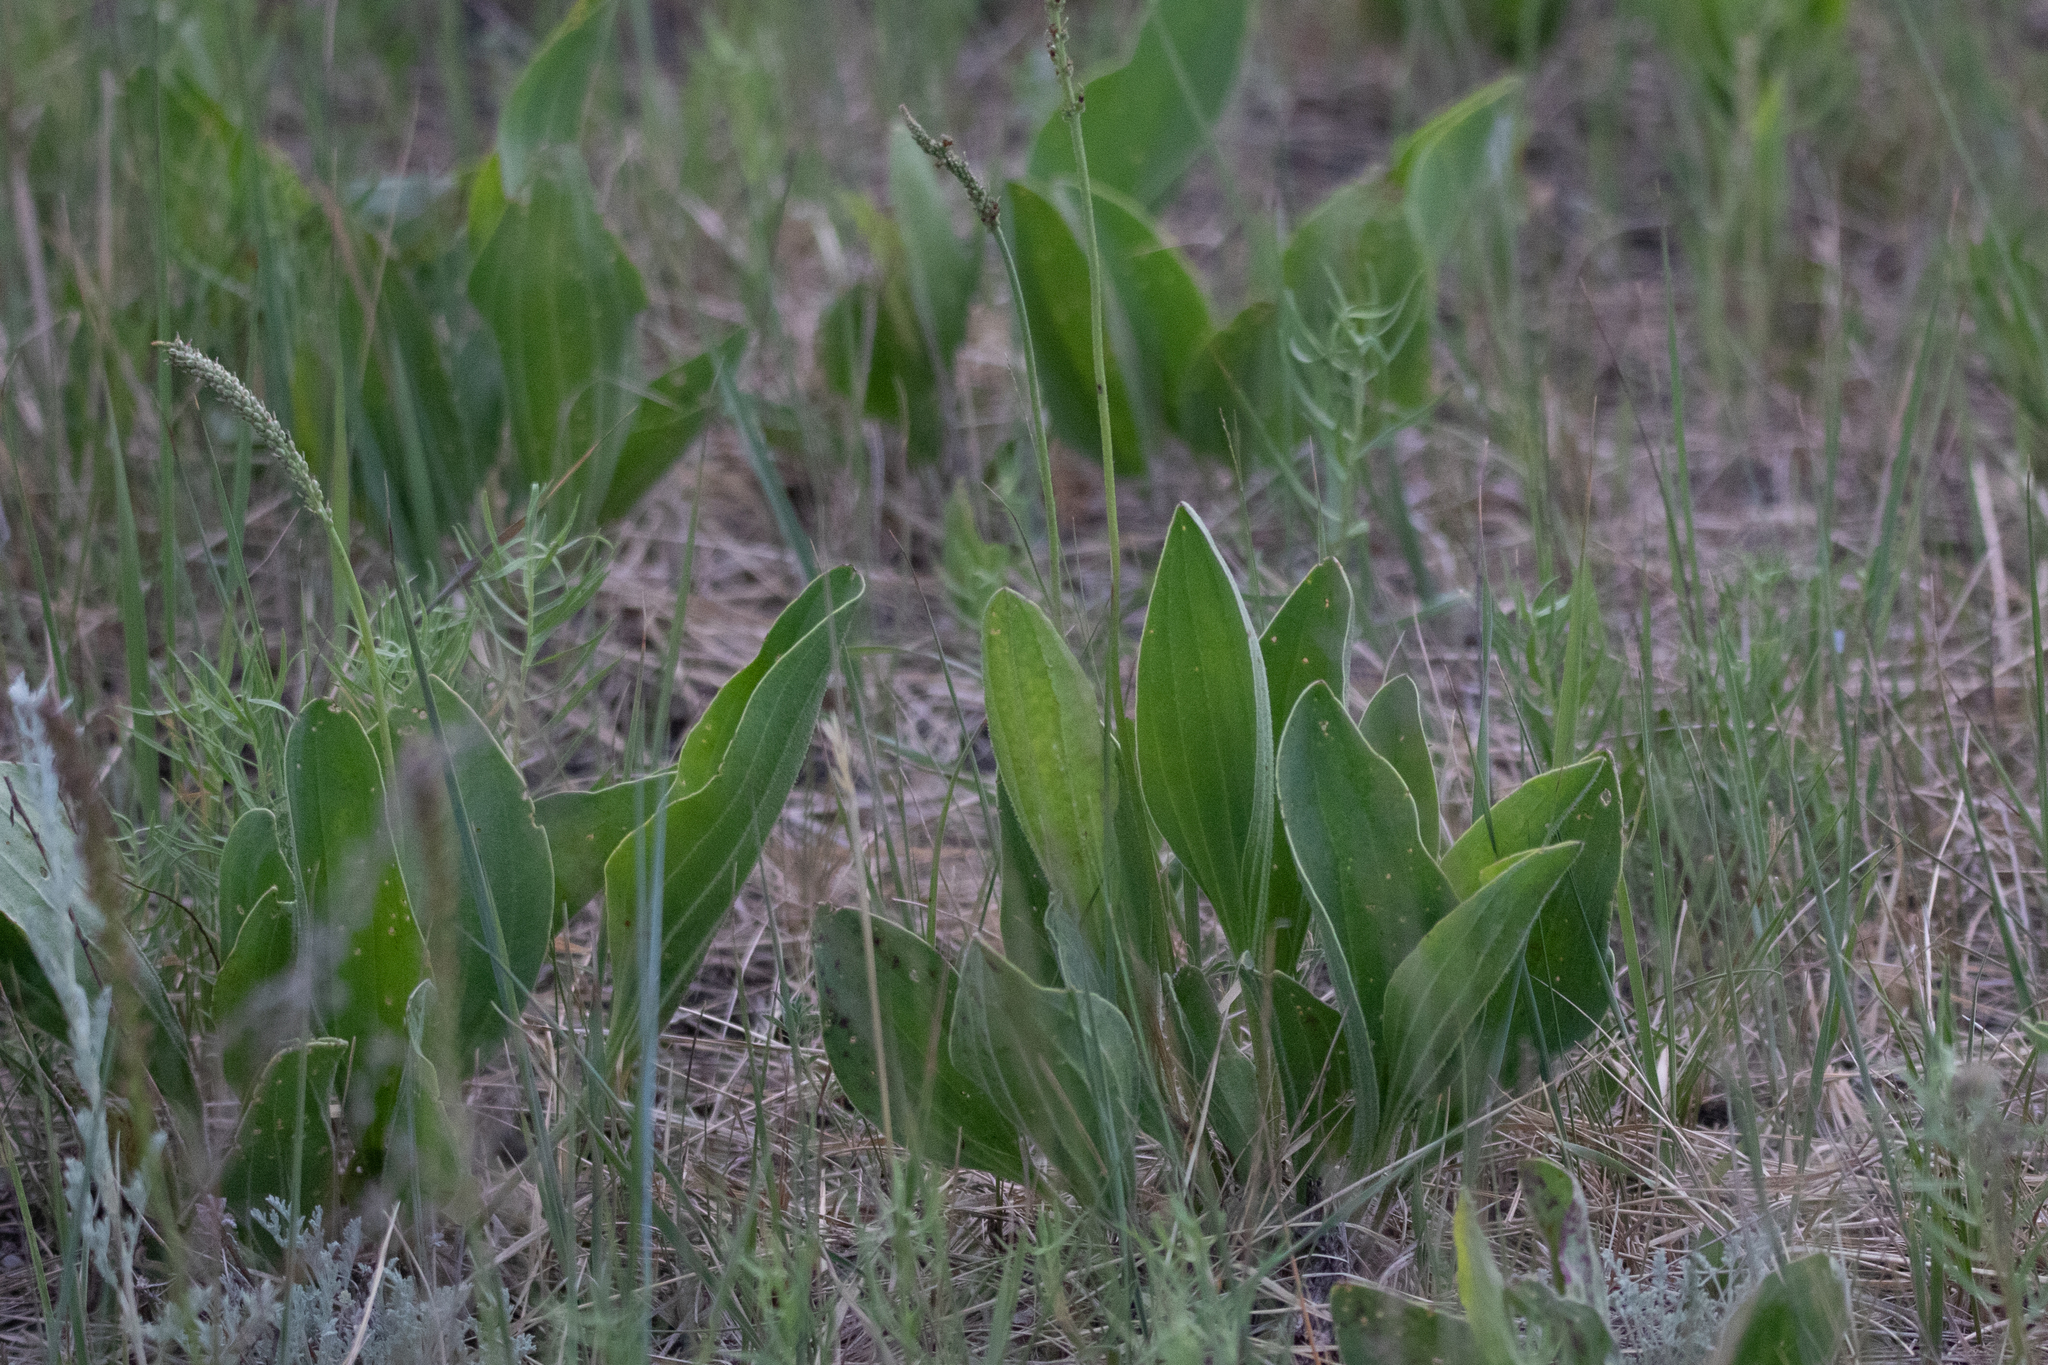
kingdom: Plantae
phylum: Tracheophyta
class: Magnoliopsida
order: Lamiales
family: Plantaginaceae
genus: Plantago
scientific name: Plantago cornuti
